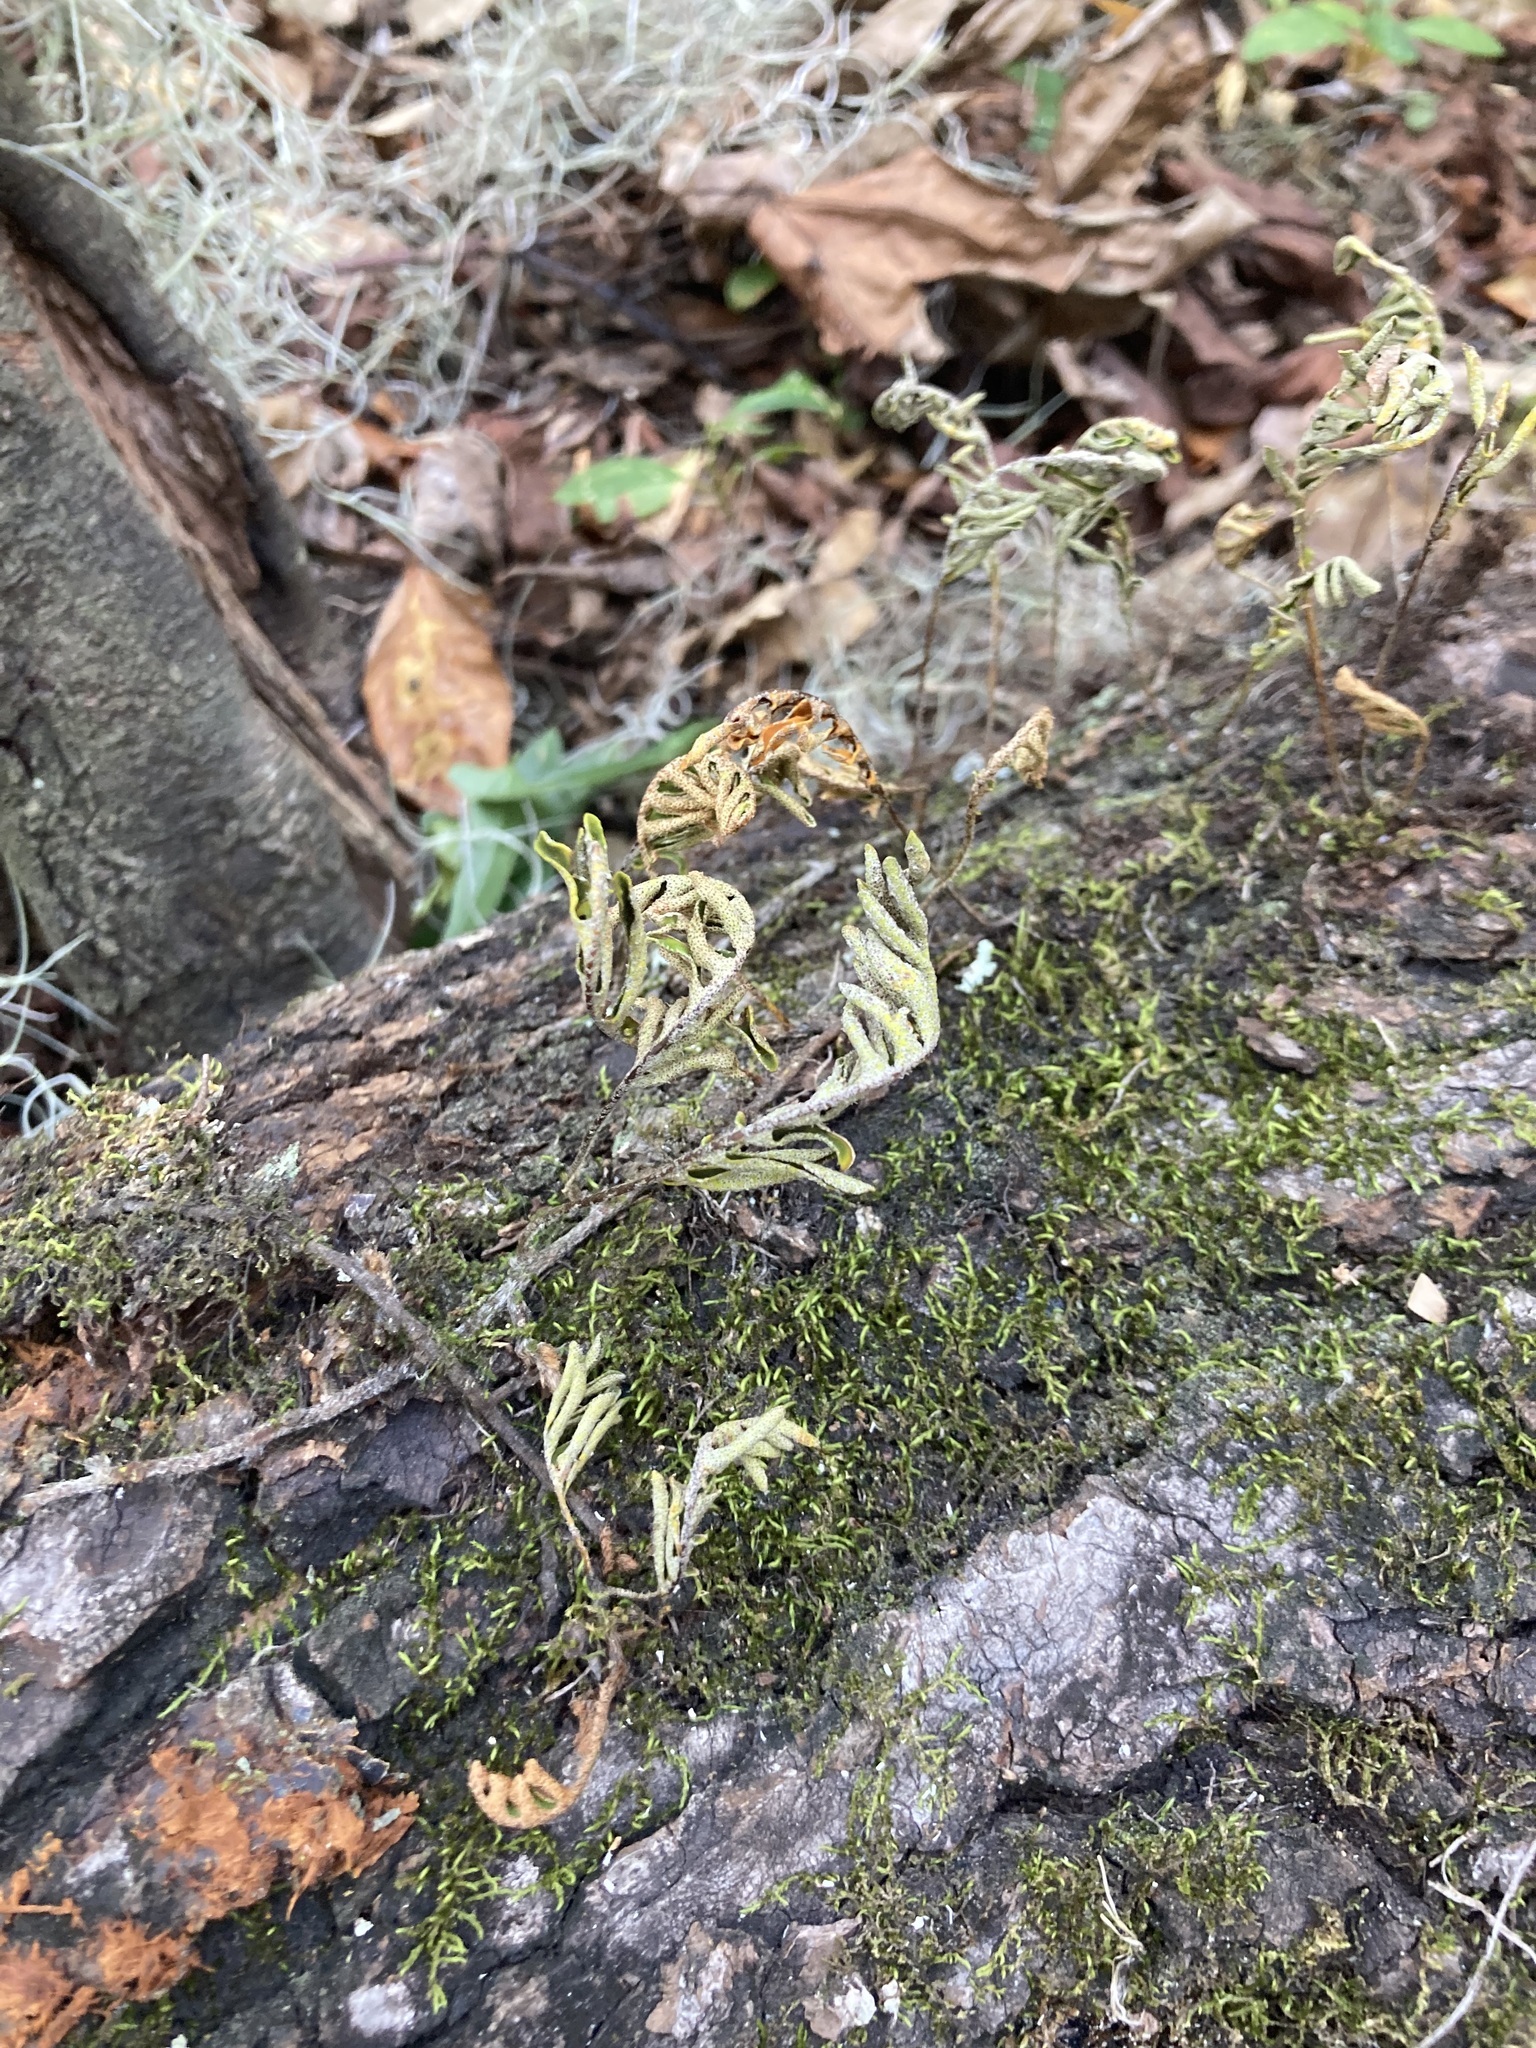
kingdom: Plantae
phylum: Tracheophyta
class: Polypodiopsida
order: Polypodiales
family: Polypodiaceae
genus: Pleopeltis
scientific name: Pleopeltis michauxiana
